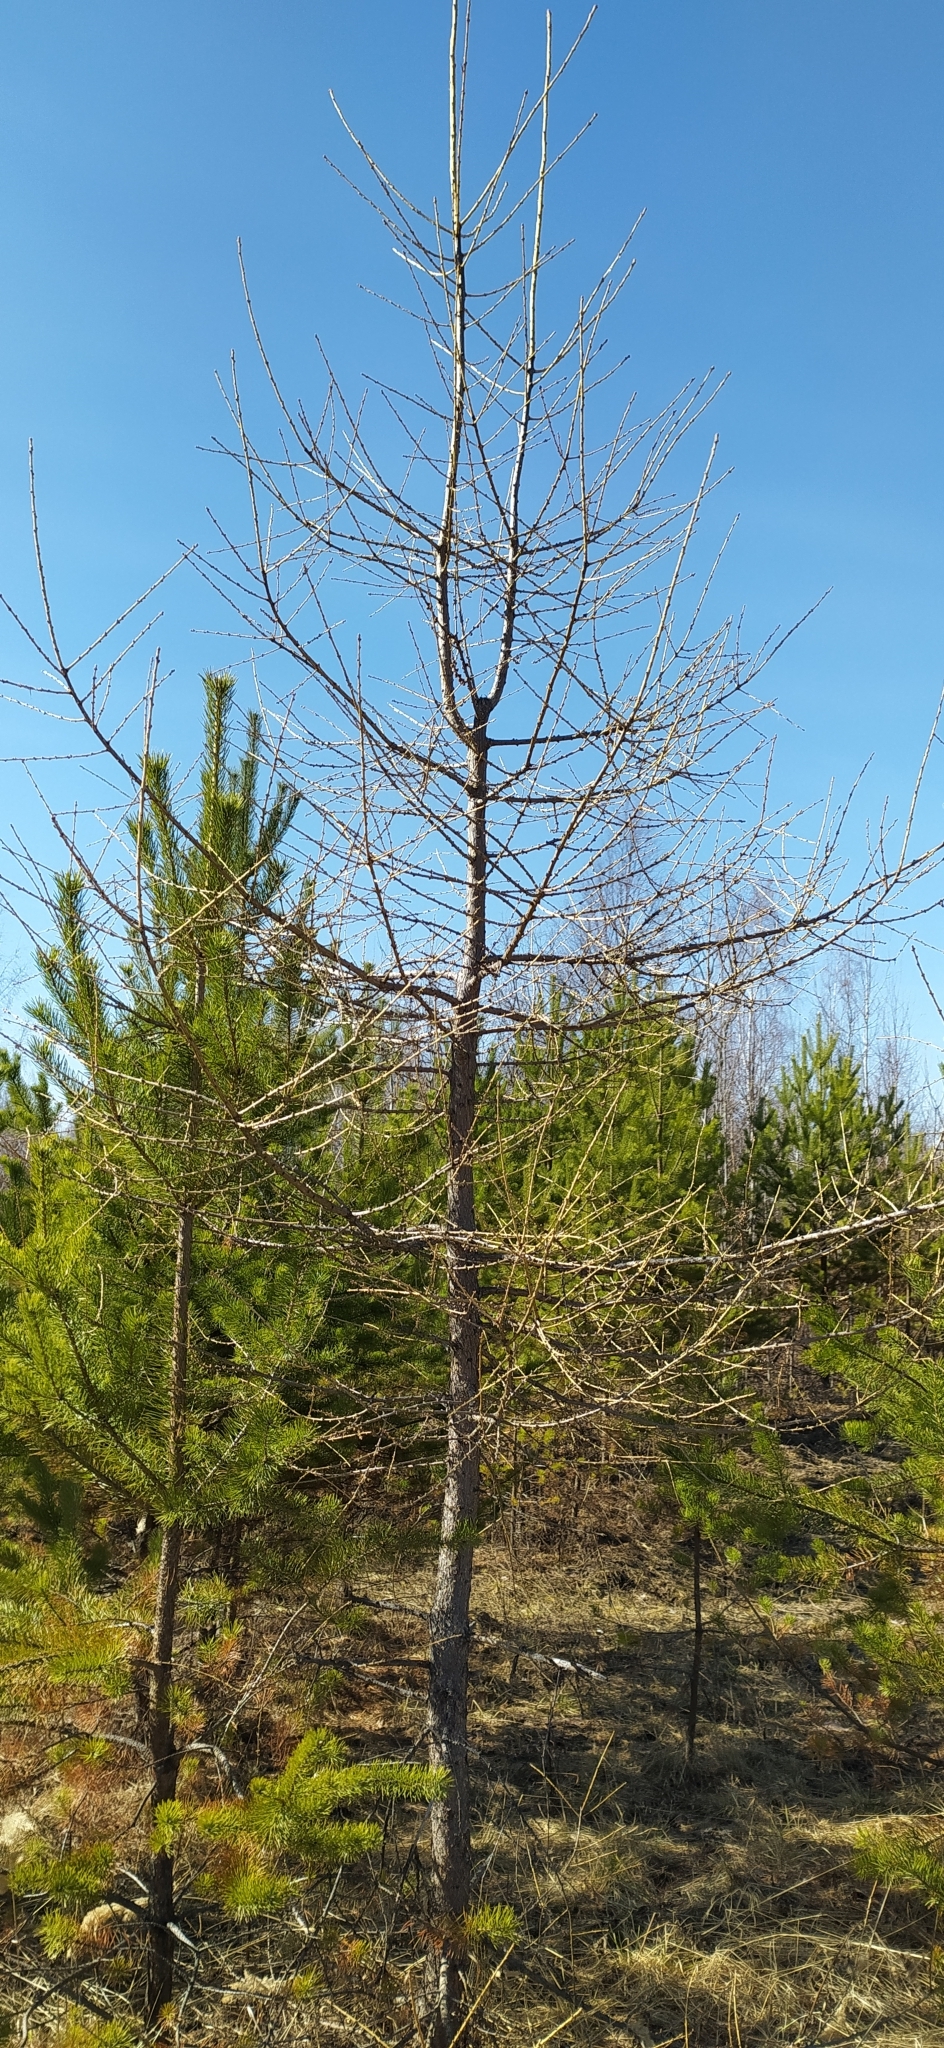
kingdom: Plantae
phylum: Tracheophyta
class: Pinopsida
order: Pinales
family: Pinaceae
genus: Larix
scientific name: Larix sibirica
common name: Siberian larch
